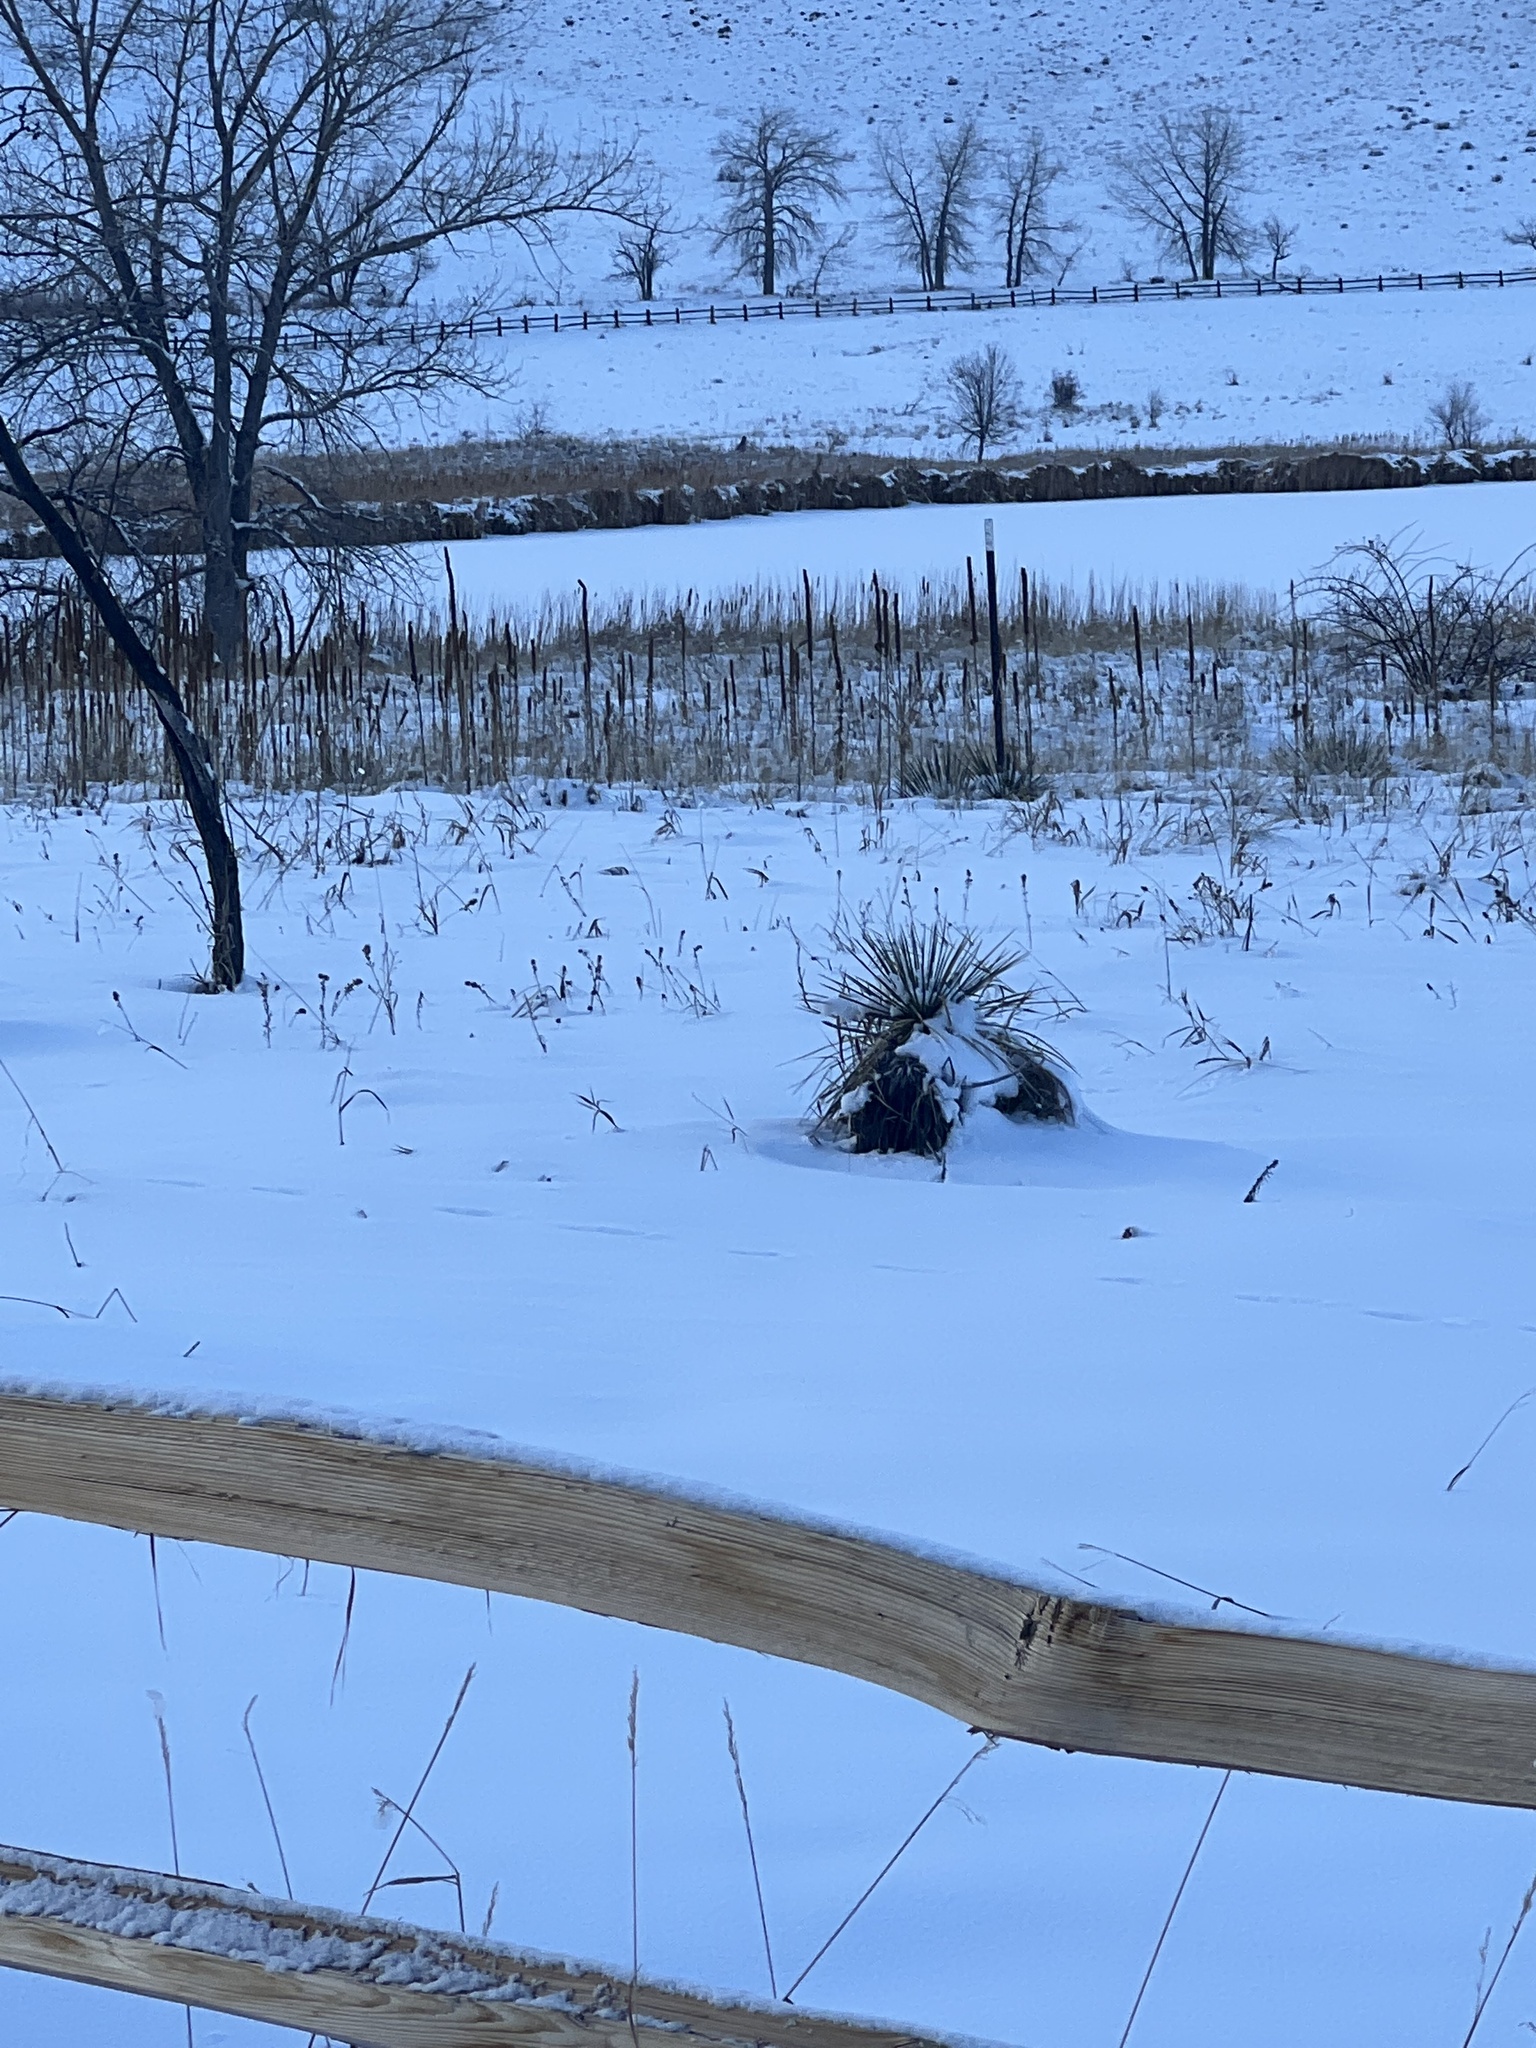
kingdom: Plantae
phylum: Tracheophyta
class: Liliopsida
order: Asparagales
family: Asparagaceae
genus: Yucca
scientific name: Yucca glauca
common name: Great plains yucca
